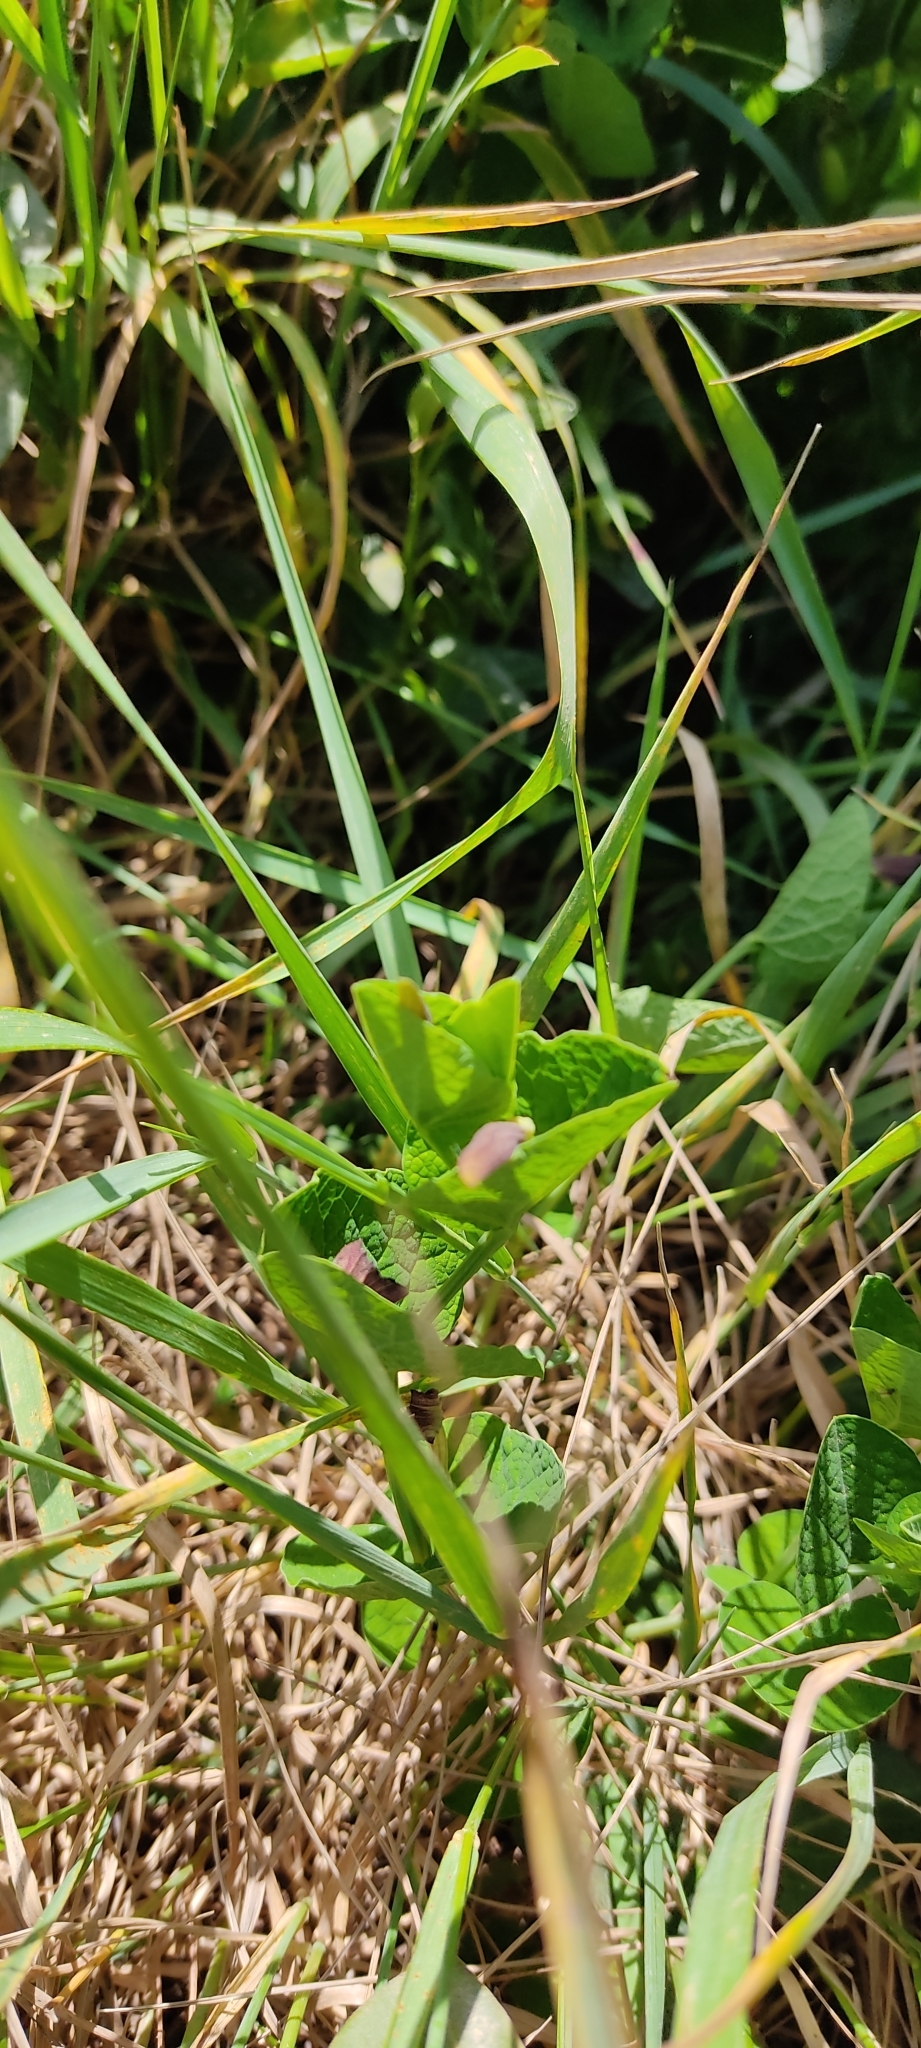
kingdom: Plantae
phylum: Tracheophyta
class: Magnoliopsida
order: Piperales
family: Aristolochiaceae
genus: Aristolochia
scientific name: Aristolochia rotunda
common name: Smearwort
